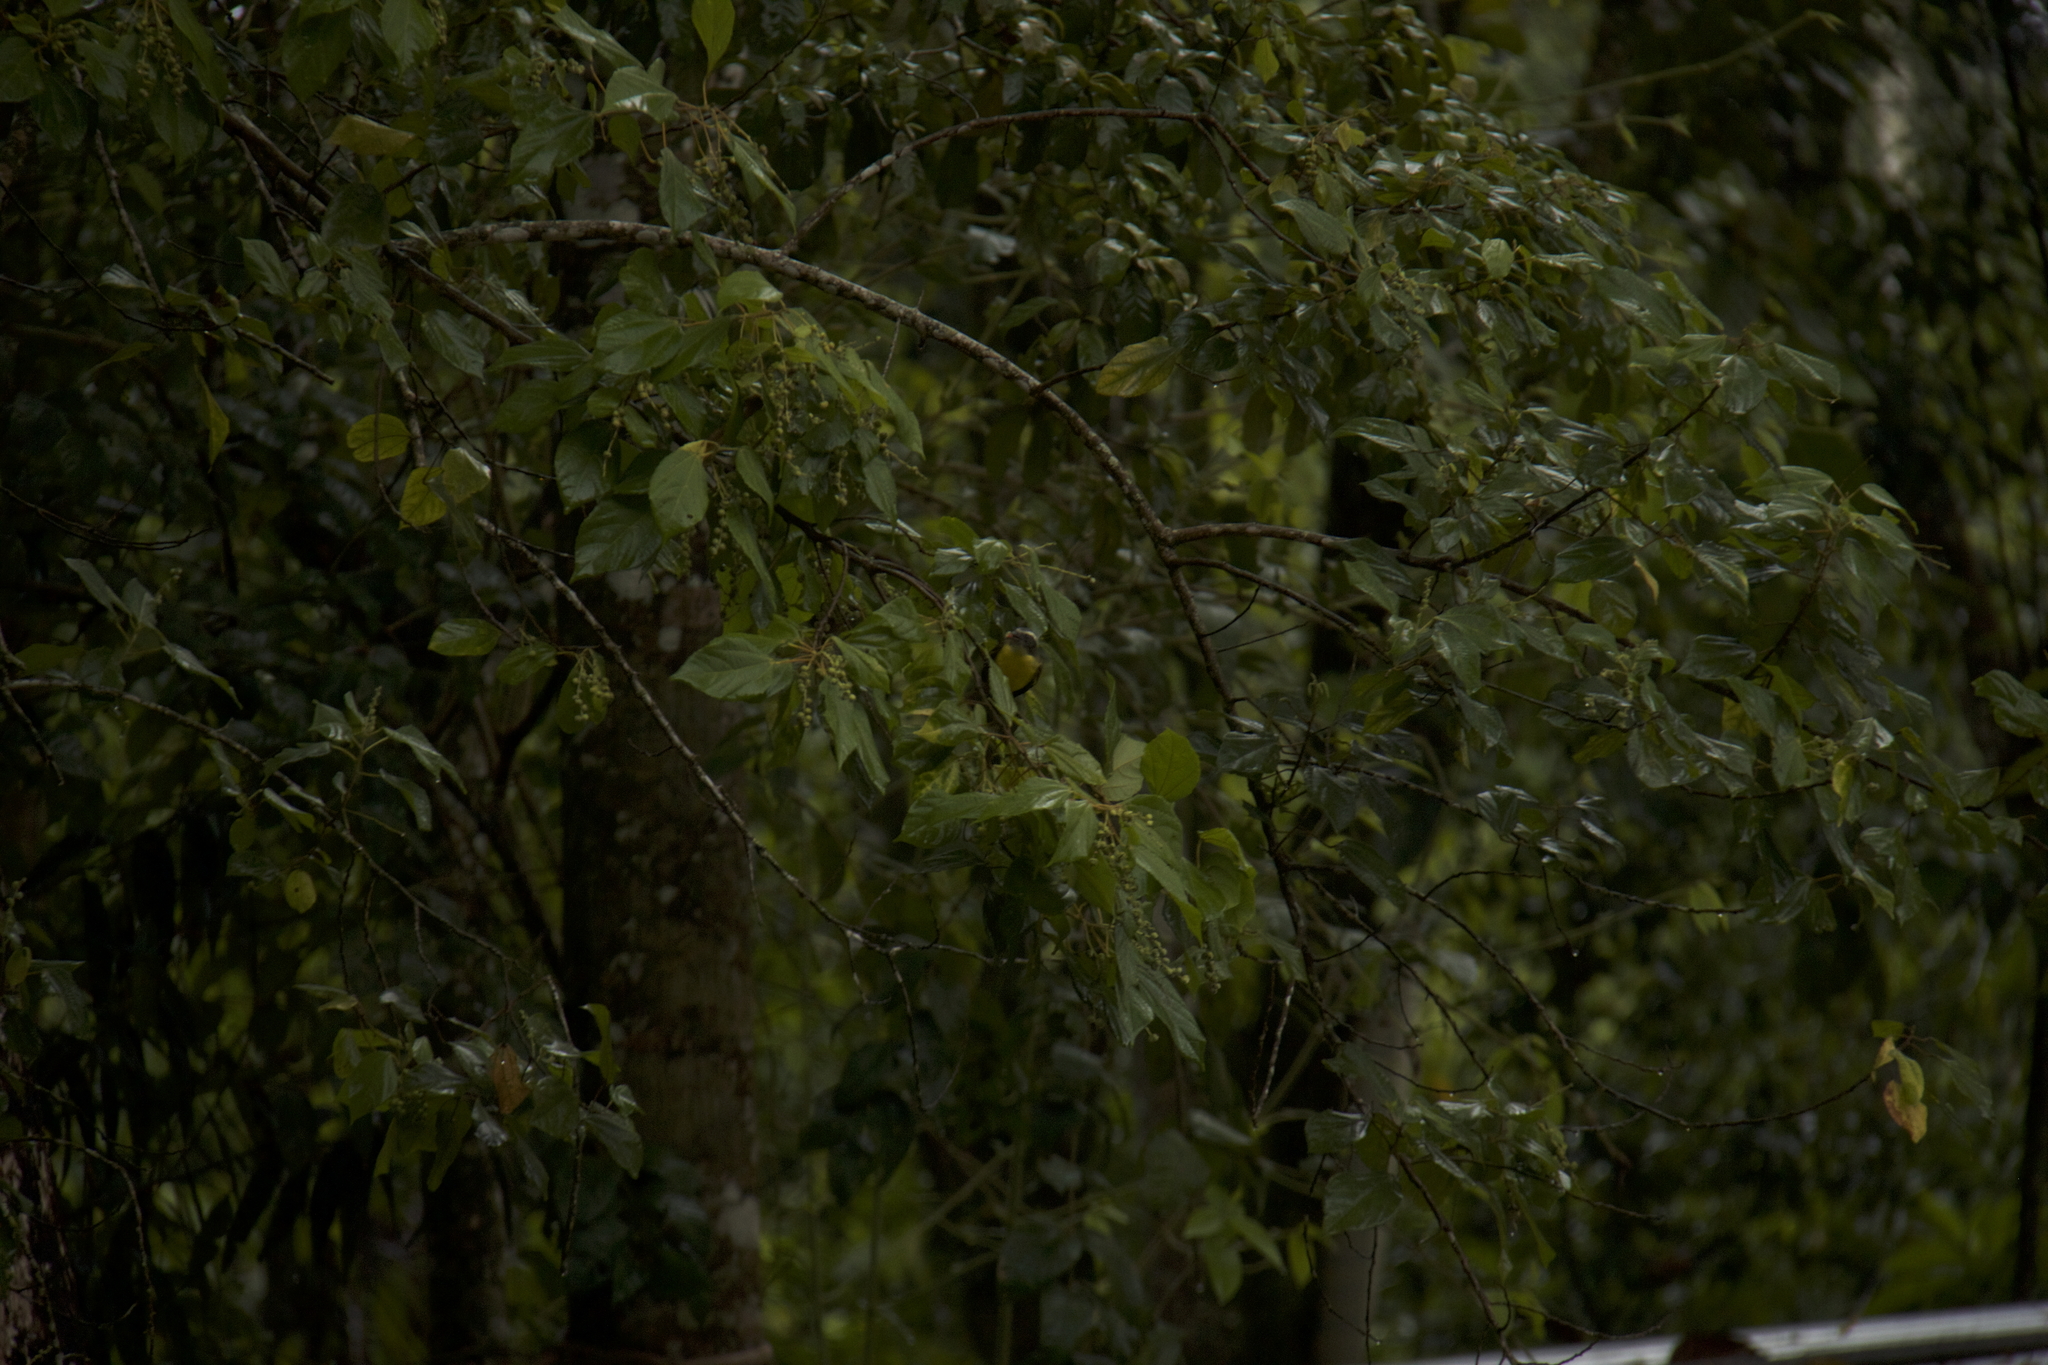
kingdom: Animalia
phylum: Chordata
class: Aves
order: Passeriformes
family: Tyrannidae
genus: Myiozetetes
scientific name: Myiozetetes similis
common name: Social flycatcher
